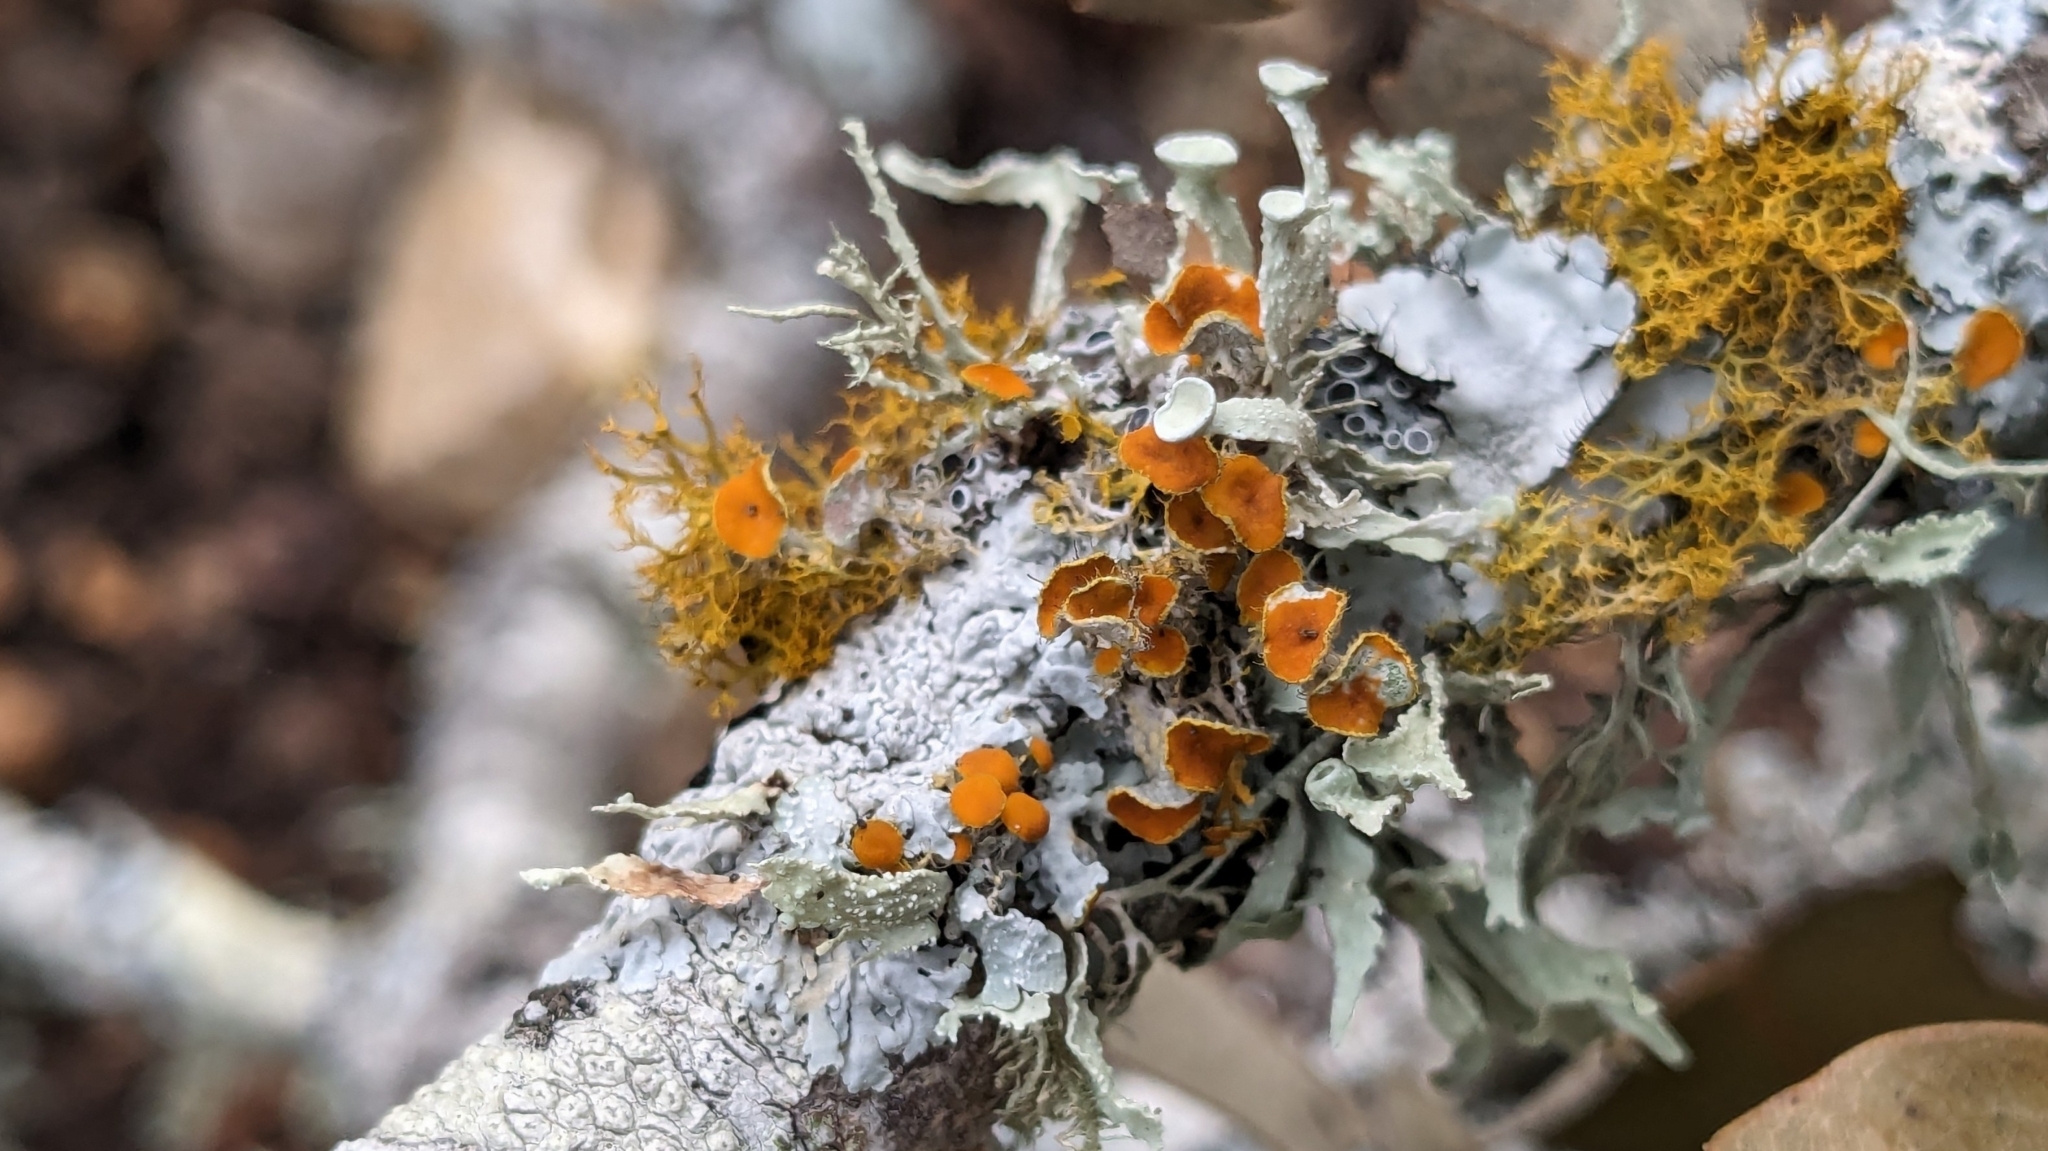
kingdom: Fungi
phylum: Ascomycota
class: Lecanoromycetes
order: Teloschistales
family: Teloschistaceae
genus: Niorma
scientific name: Niorma chrysophthalma
